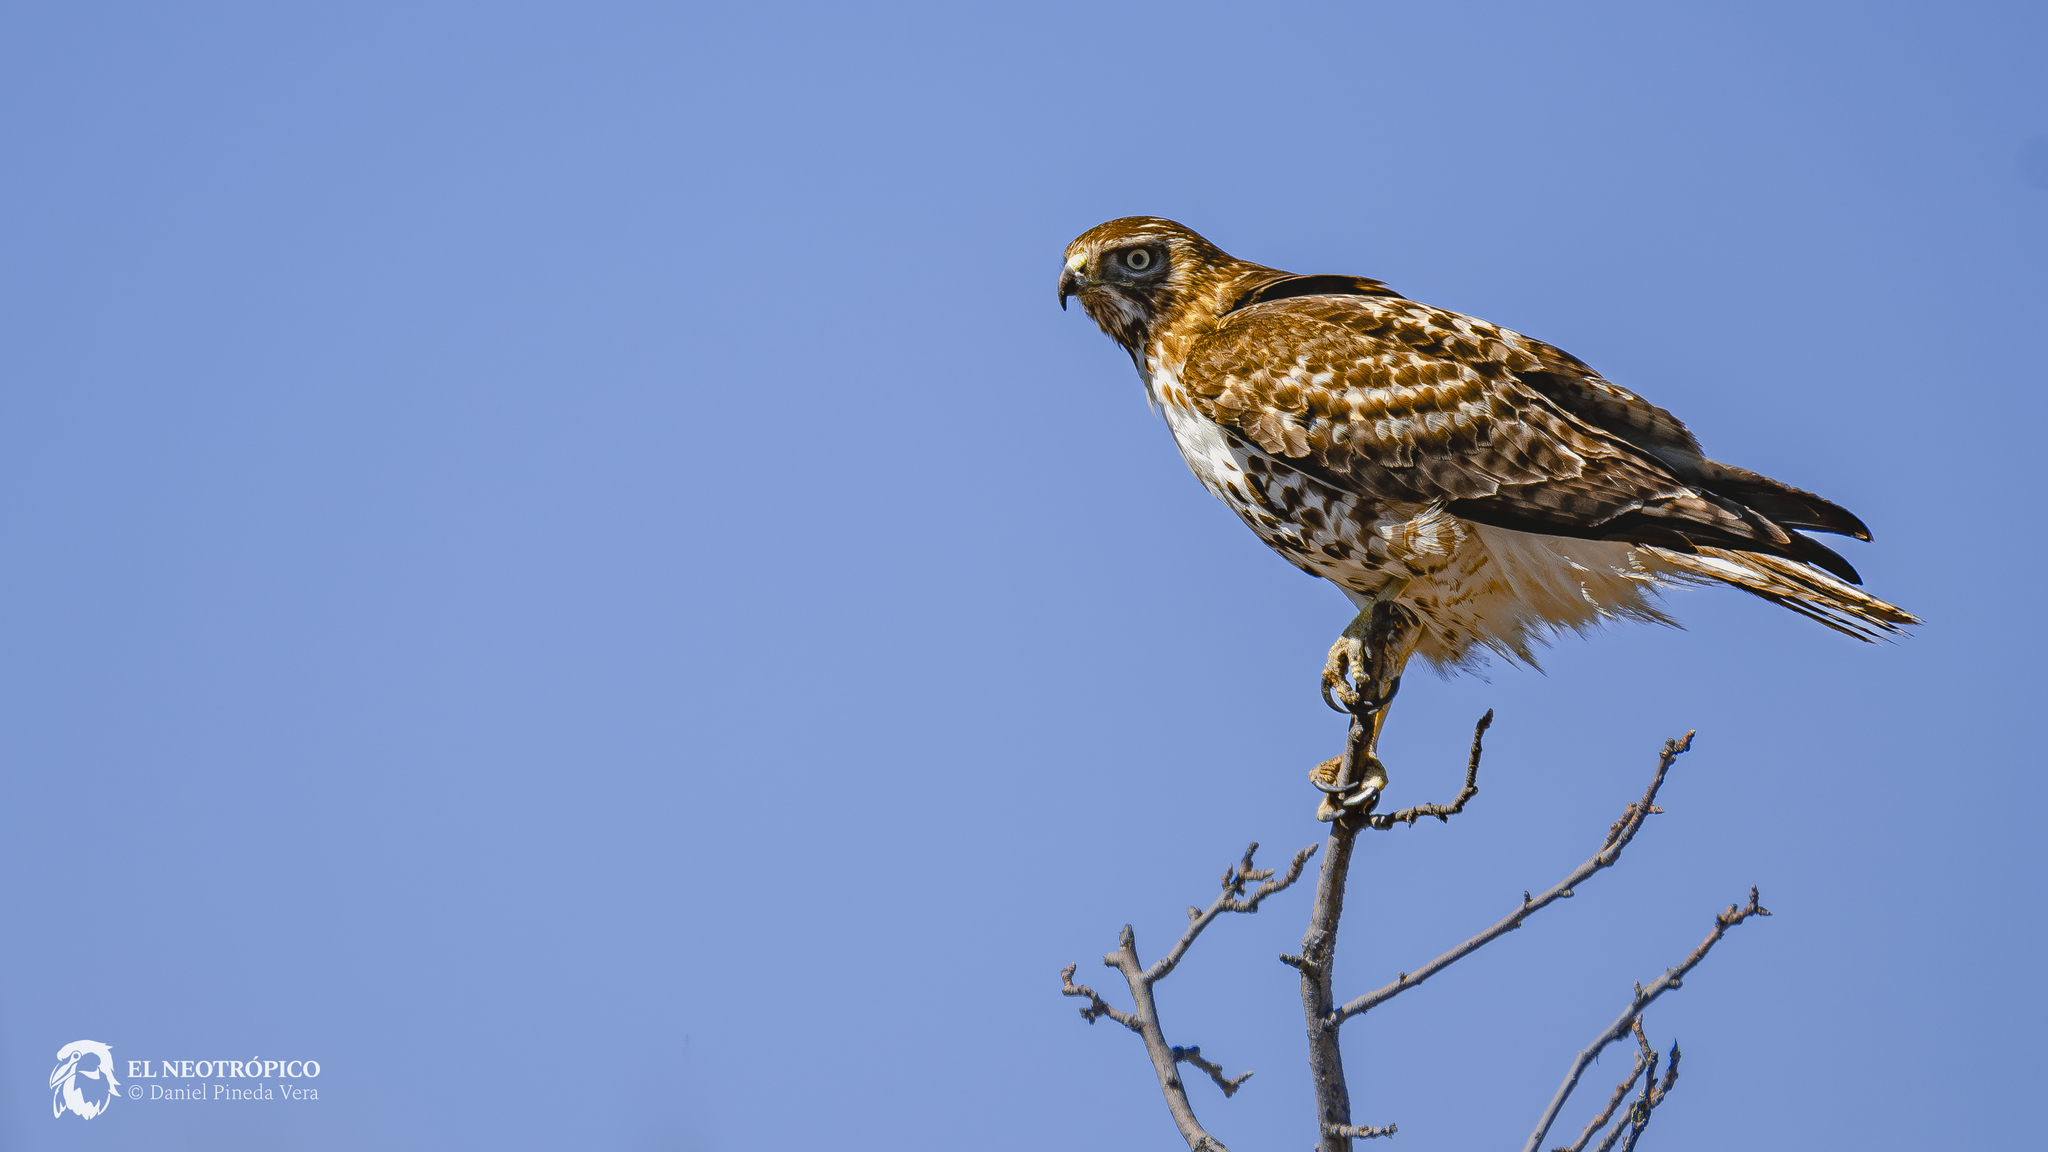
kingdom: Animalia
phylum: Chordata
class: Aves
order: Accipitriformes
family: Accipitridae
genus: Buteo
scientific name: Buteo jamaicensis
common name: Red-tailed hawk
